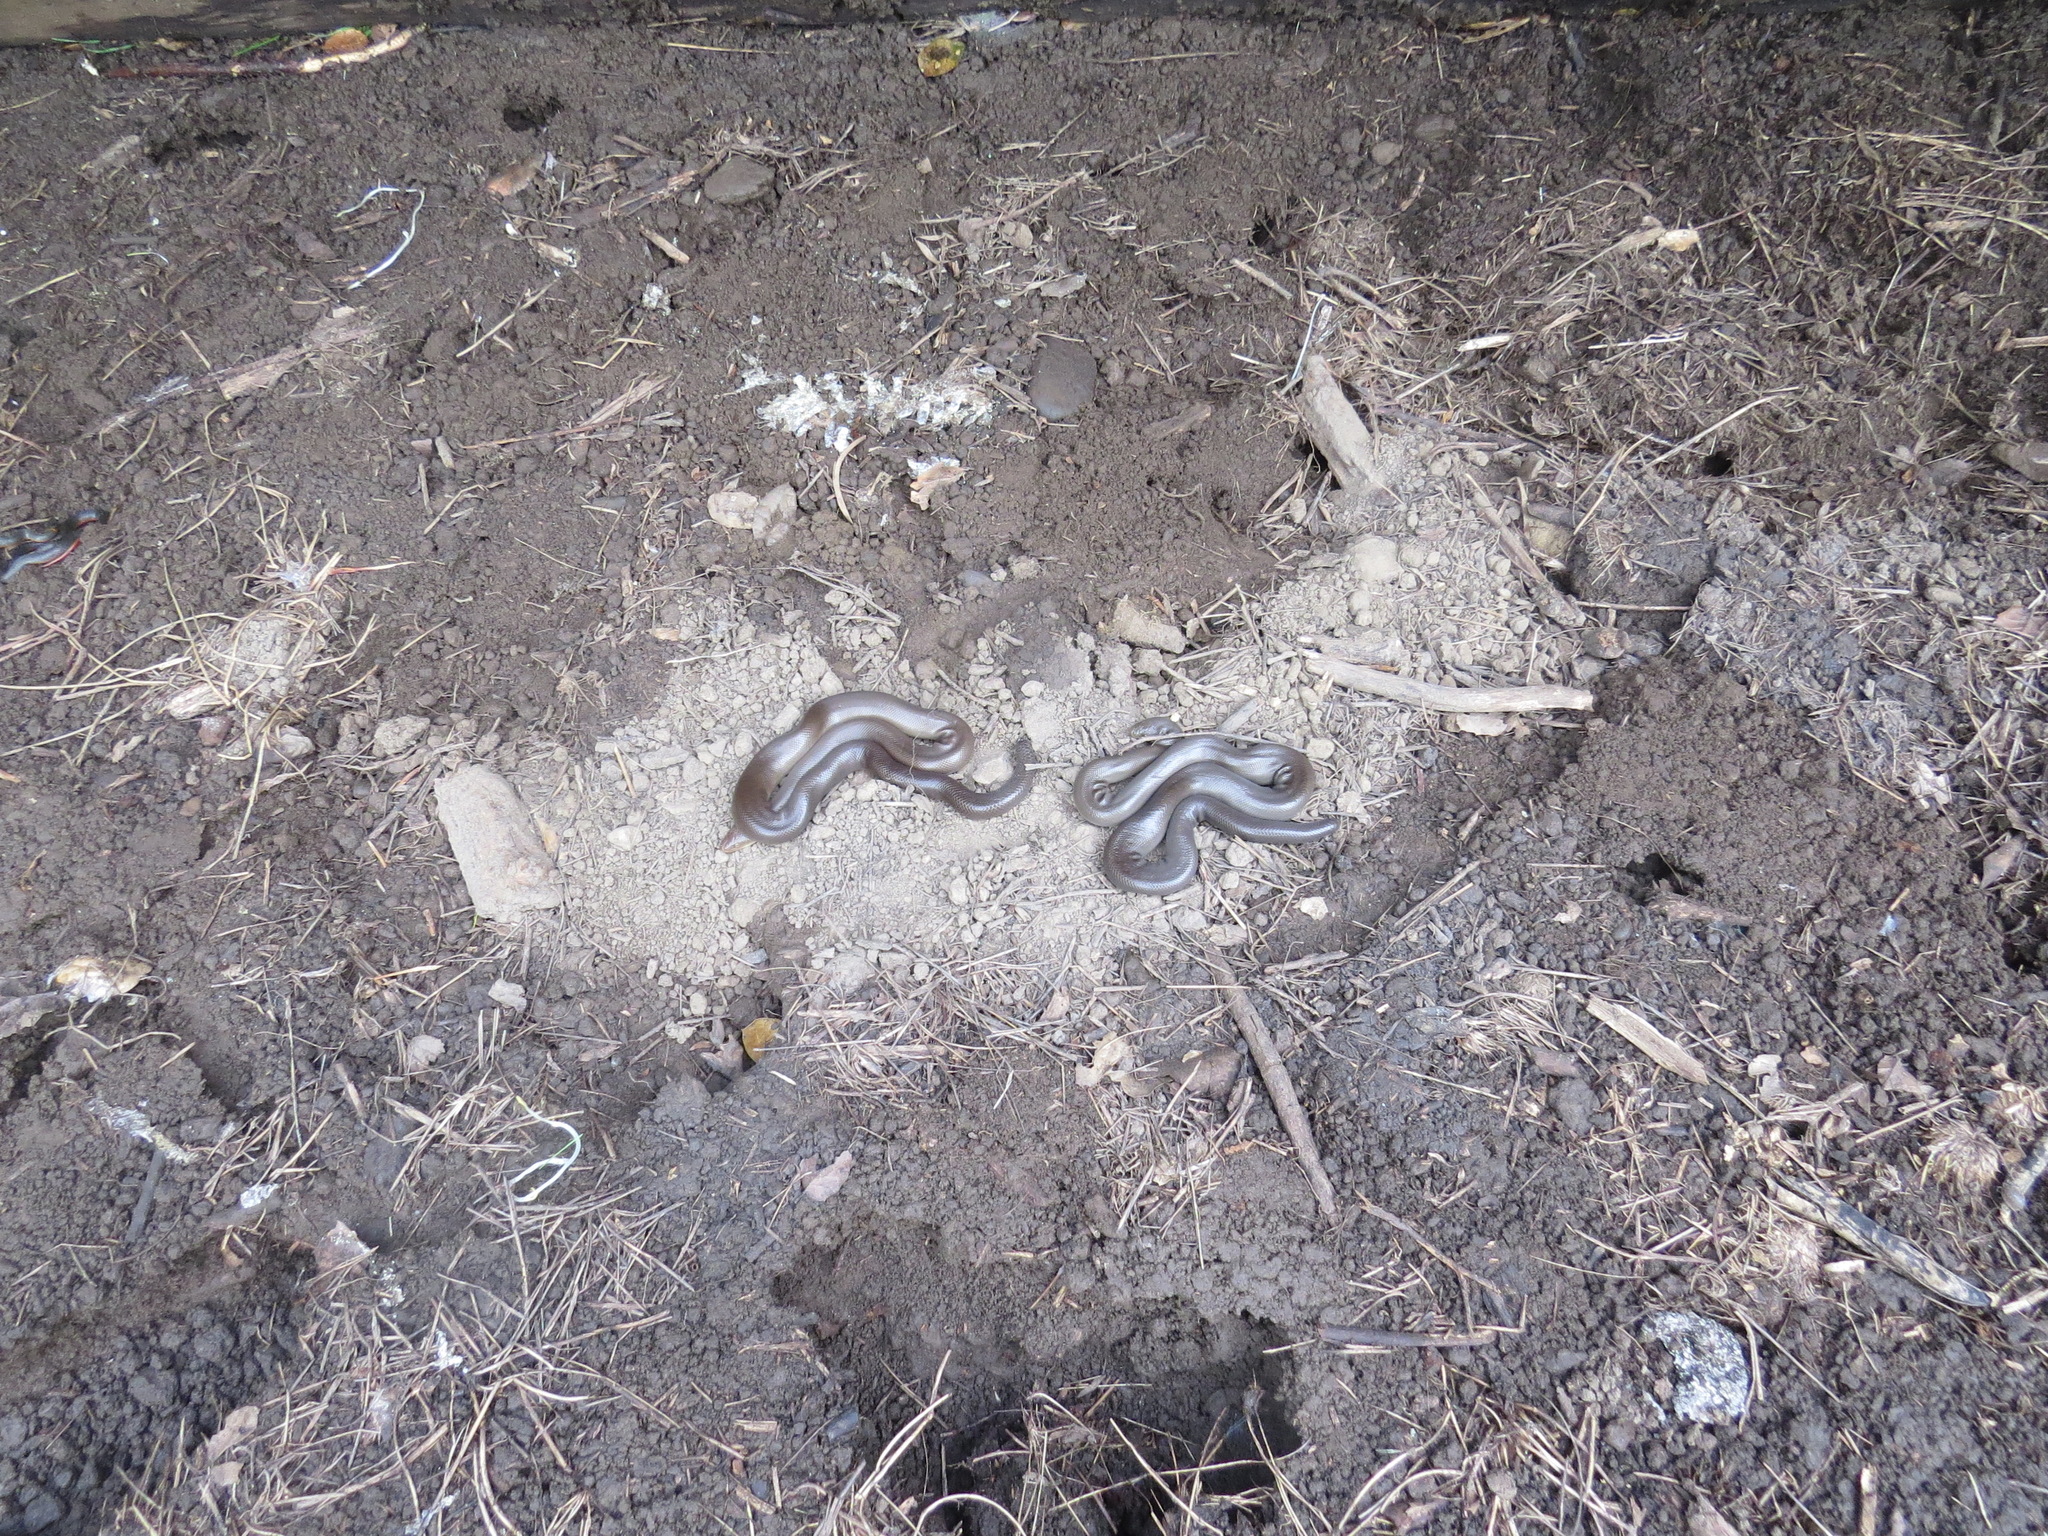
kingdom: Animalia
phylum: Chordata
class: Squamata
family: Boidae
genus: Charina
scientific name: Charina bottae
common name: Northern rubber boa
